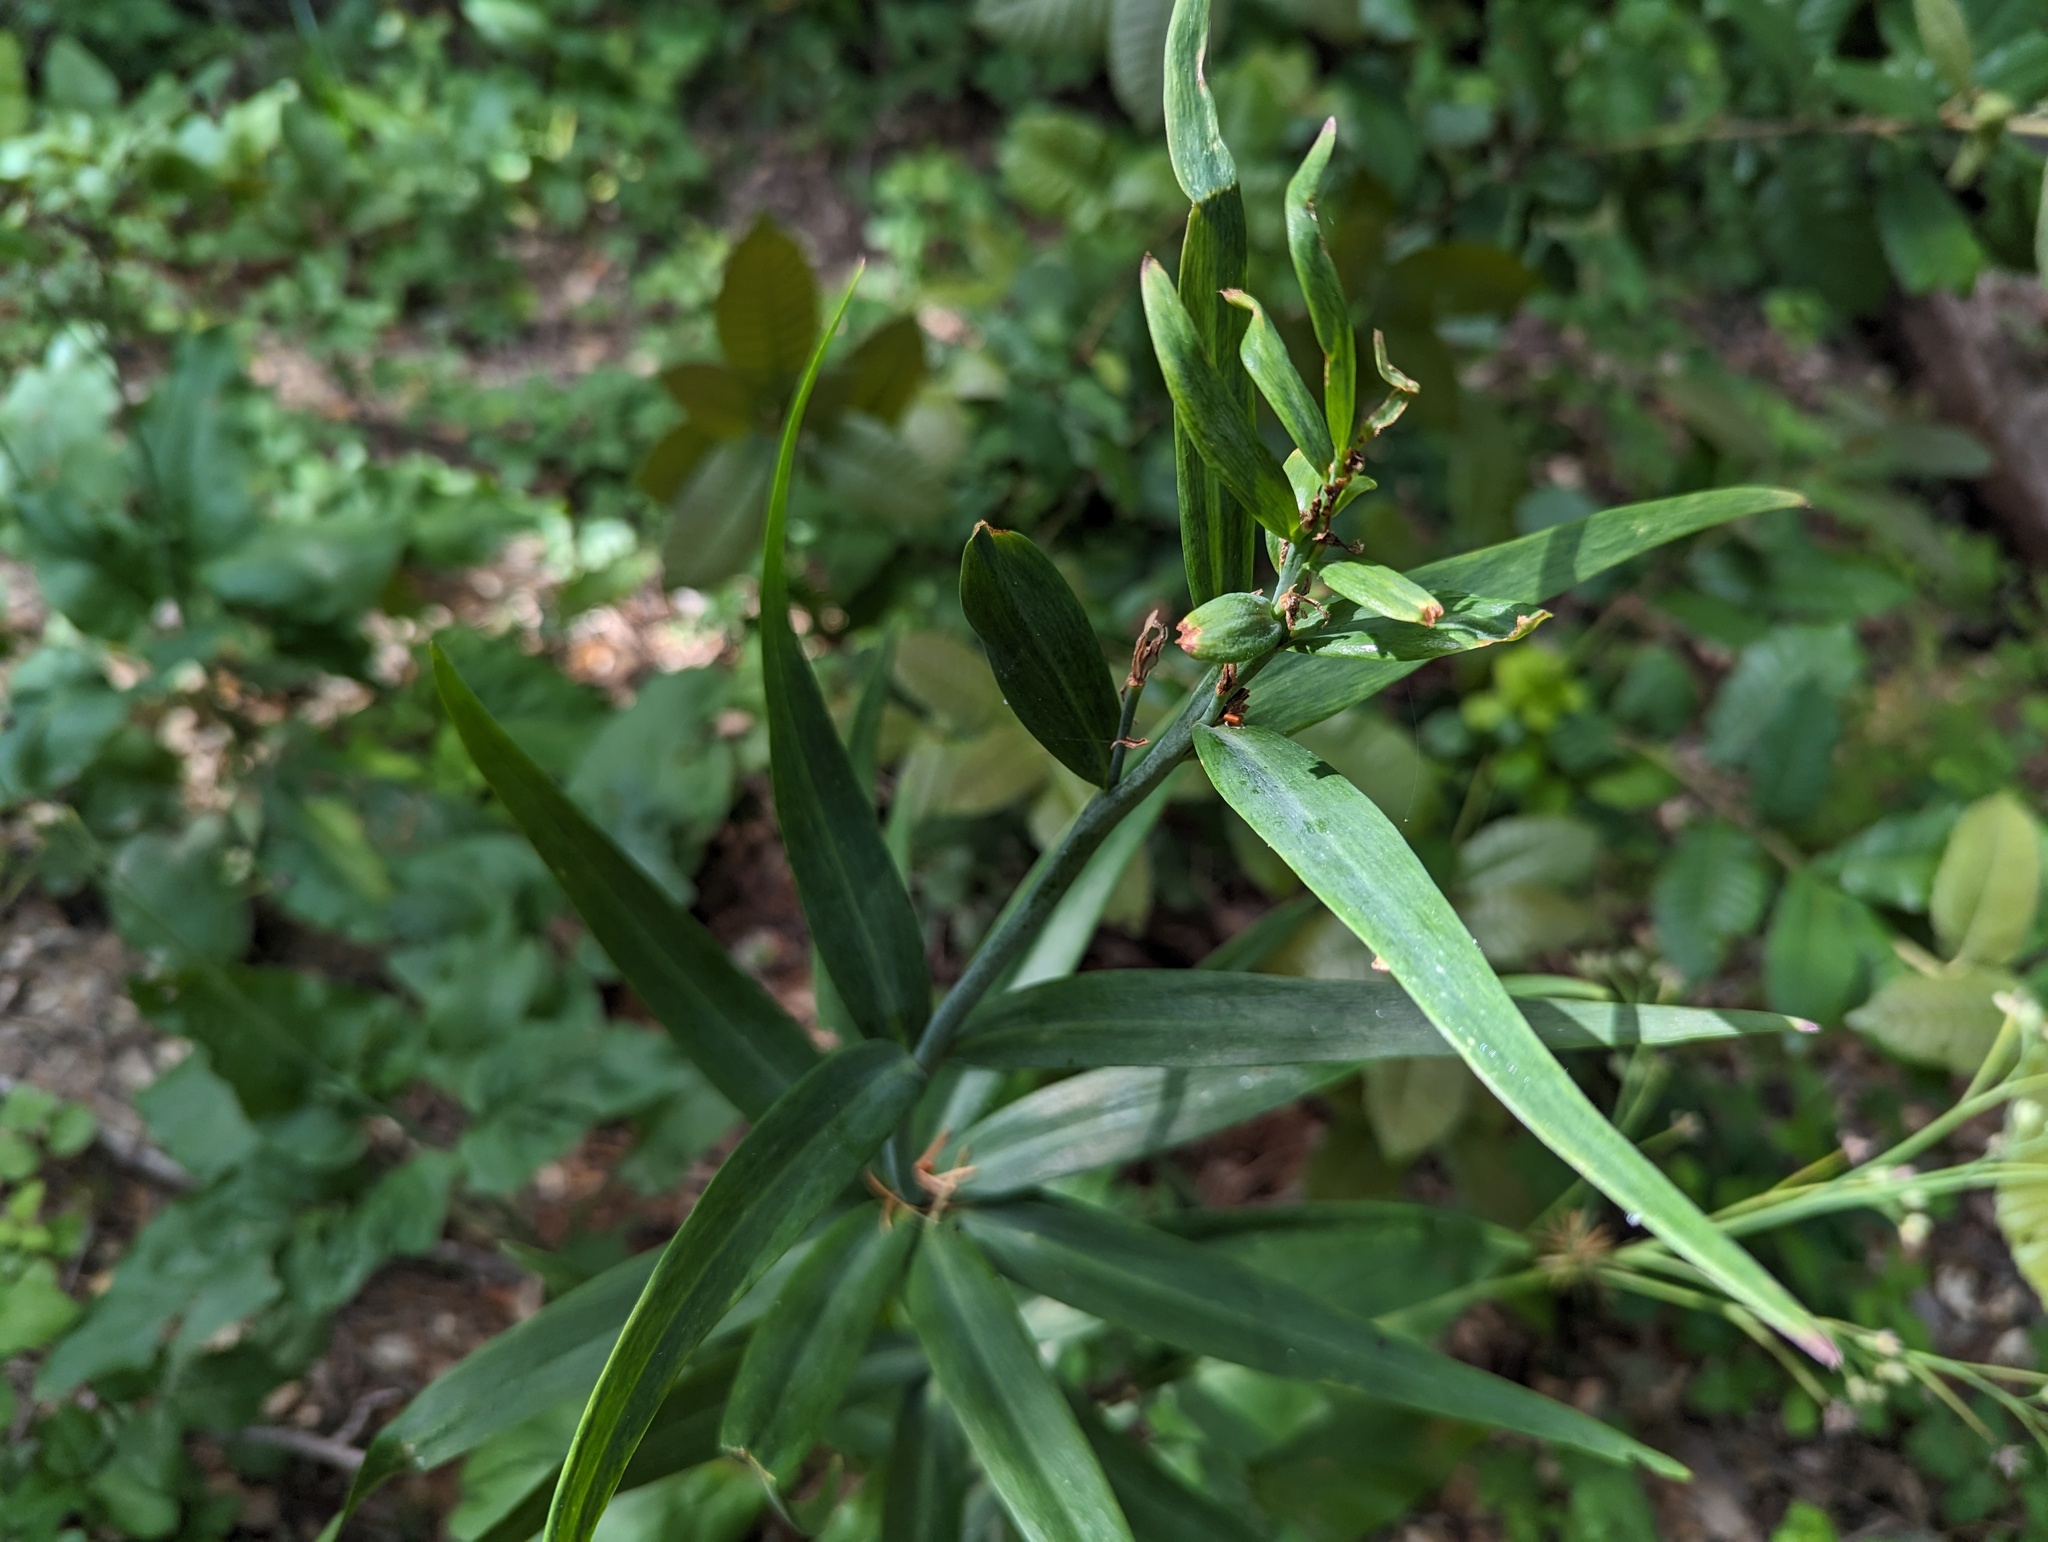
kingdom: Plantae
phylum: Tracheophyta
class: Liliopsida
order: Liliales
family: Liliaceae
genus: Fritillaria
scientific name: Fritillaria affinis
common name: Ojai fritillary
